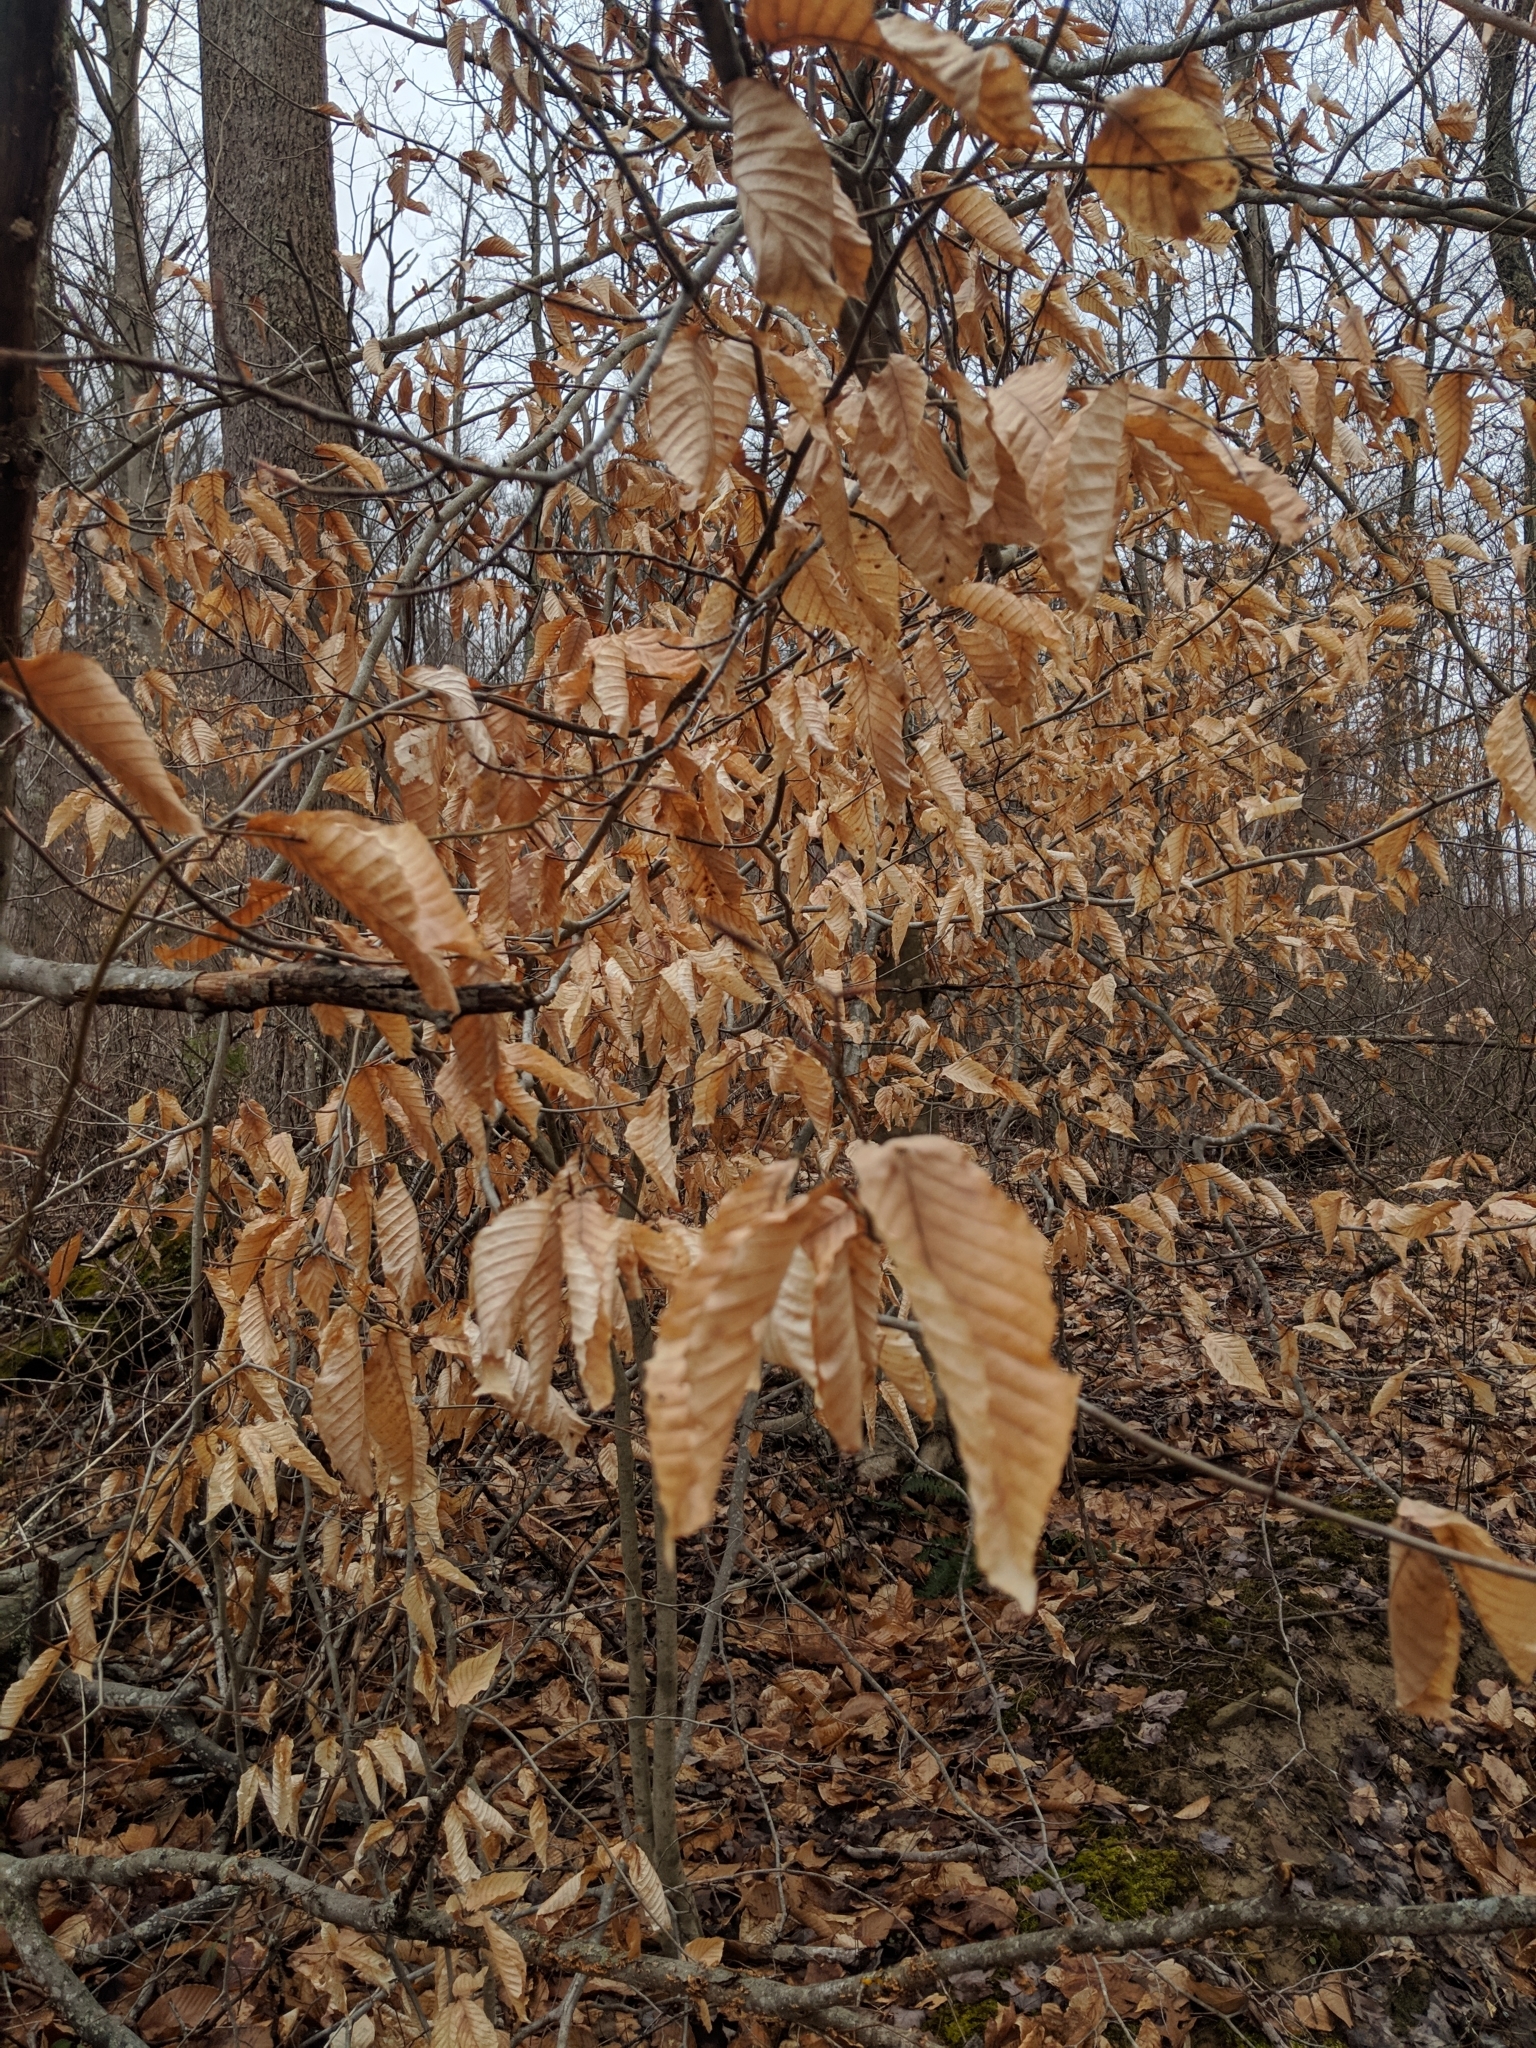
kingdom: Plantae
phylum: Tracheophyta
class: Magnoliopsida
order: Fagales
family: Fagaceae
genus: Fagus
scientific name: Fagus grandifolia
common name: American beech
